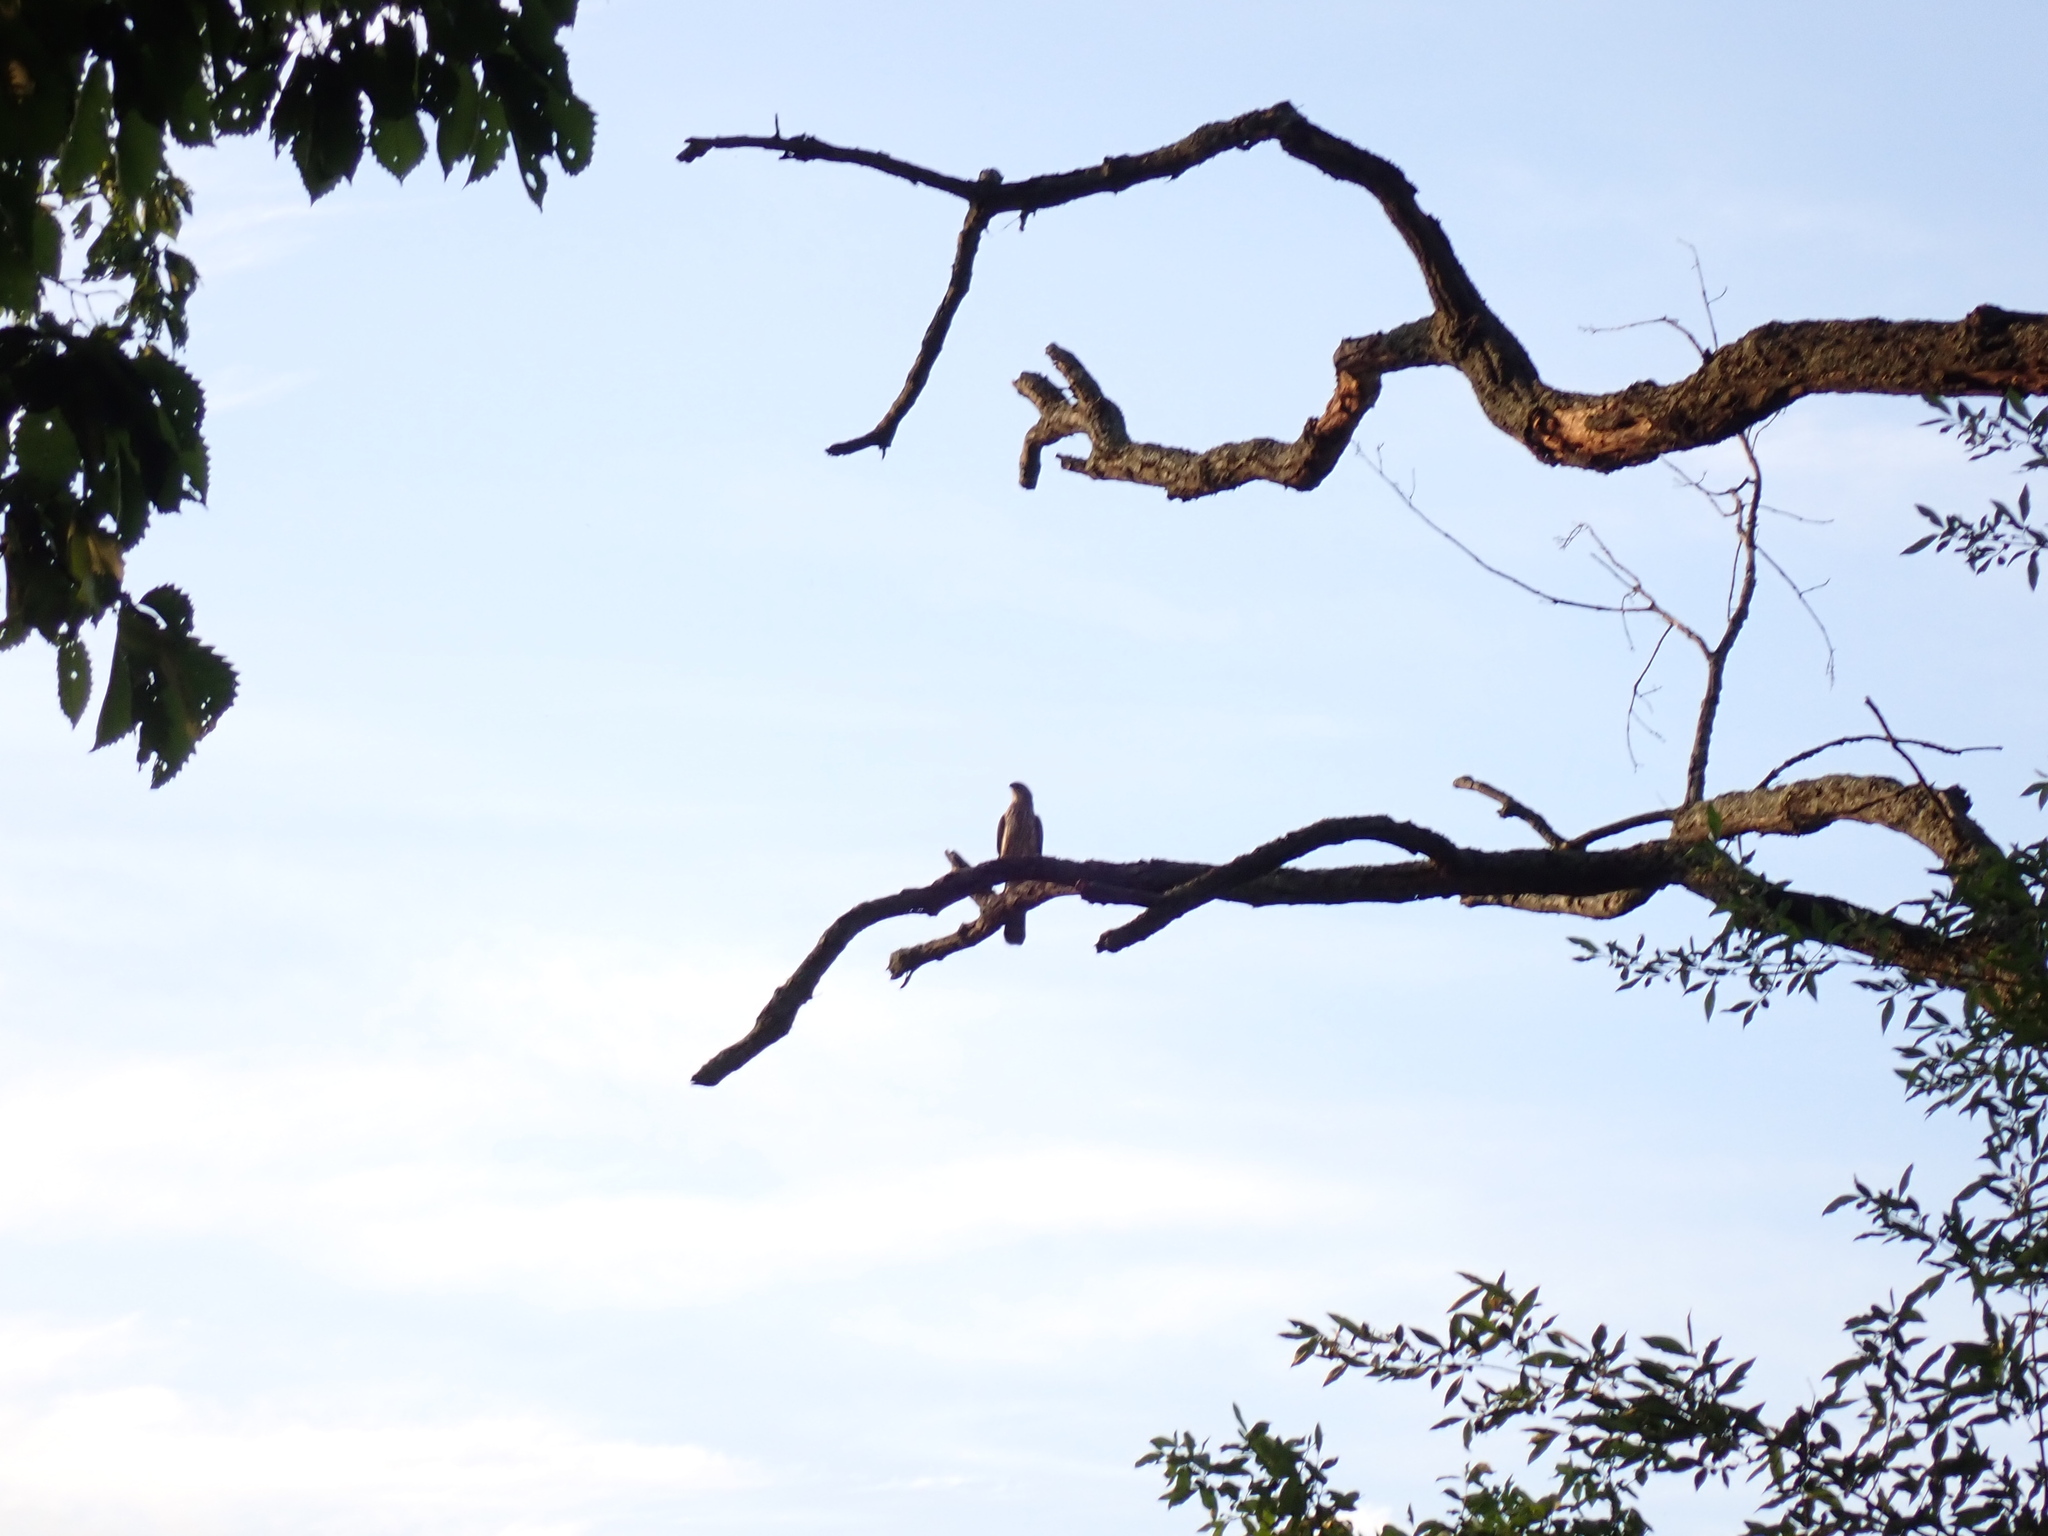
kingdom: Animalia
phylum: Chordata
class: Aves
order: Accipitriformes
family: Accipitridae
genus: Accipiter
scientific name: Accipiter cooperii
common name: Cooper's hawk
